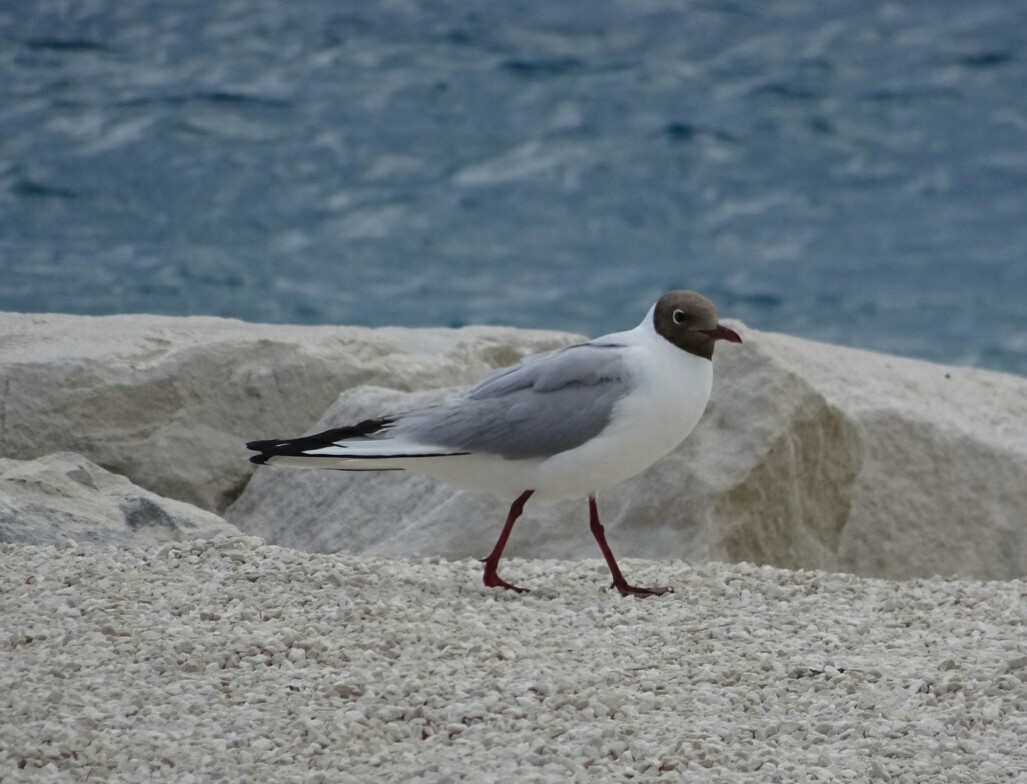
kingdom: Animalia
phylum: Chordata
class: Aves
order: Charadriiformes
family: Laridae
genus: Chroicocephalus
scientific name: Chroicocephalus ridibundus
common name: Black-headed gull
